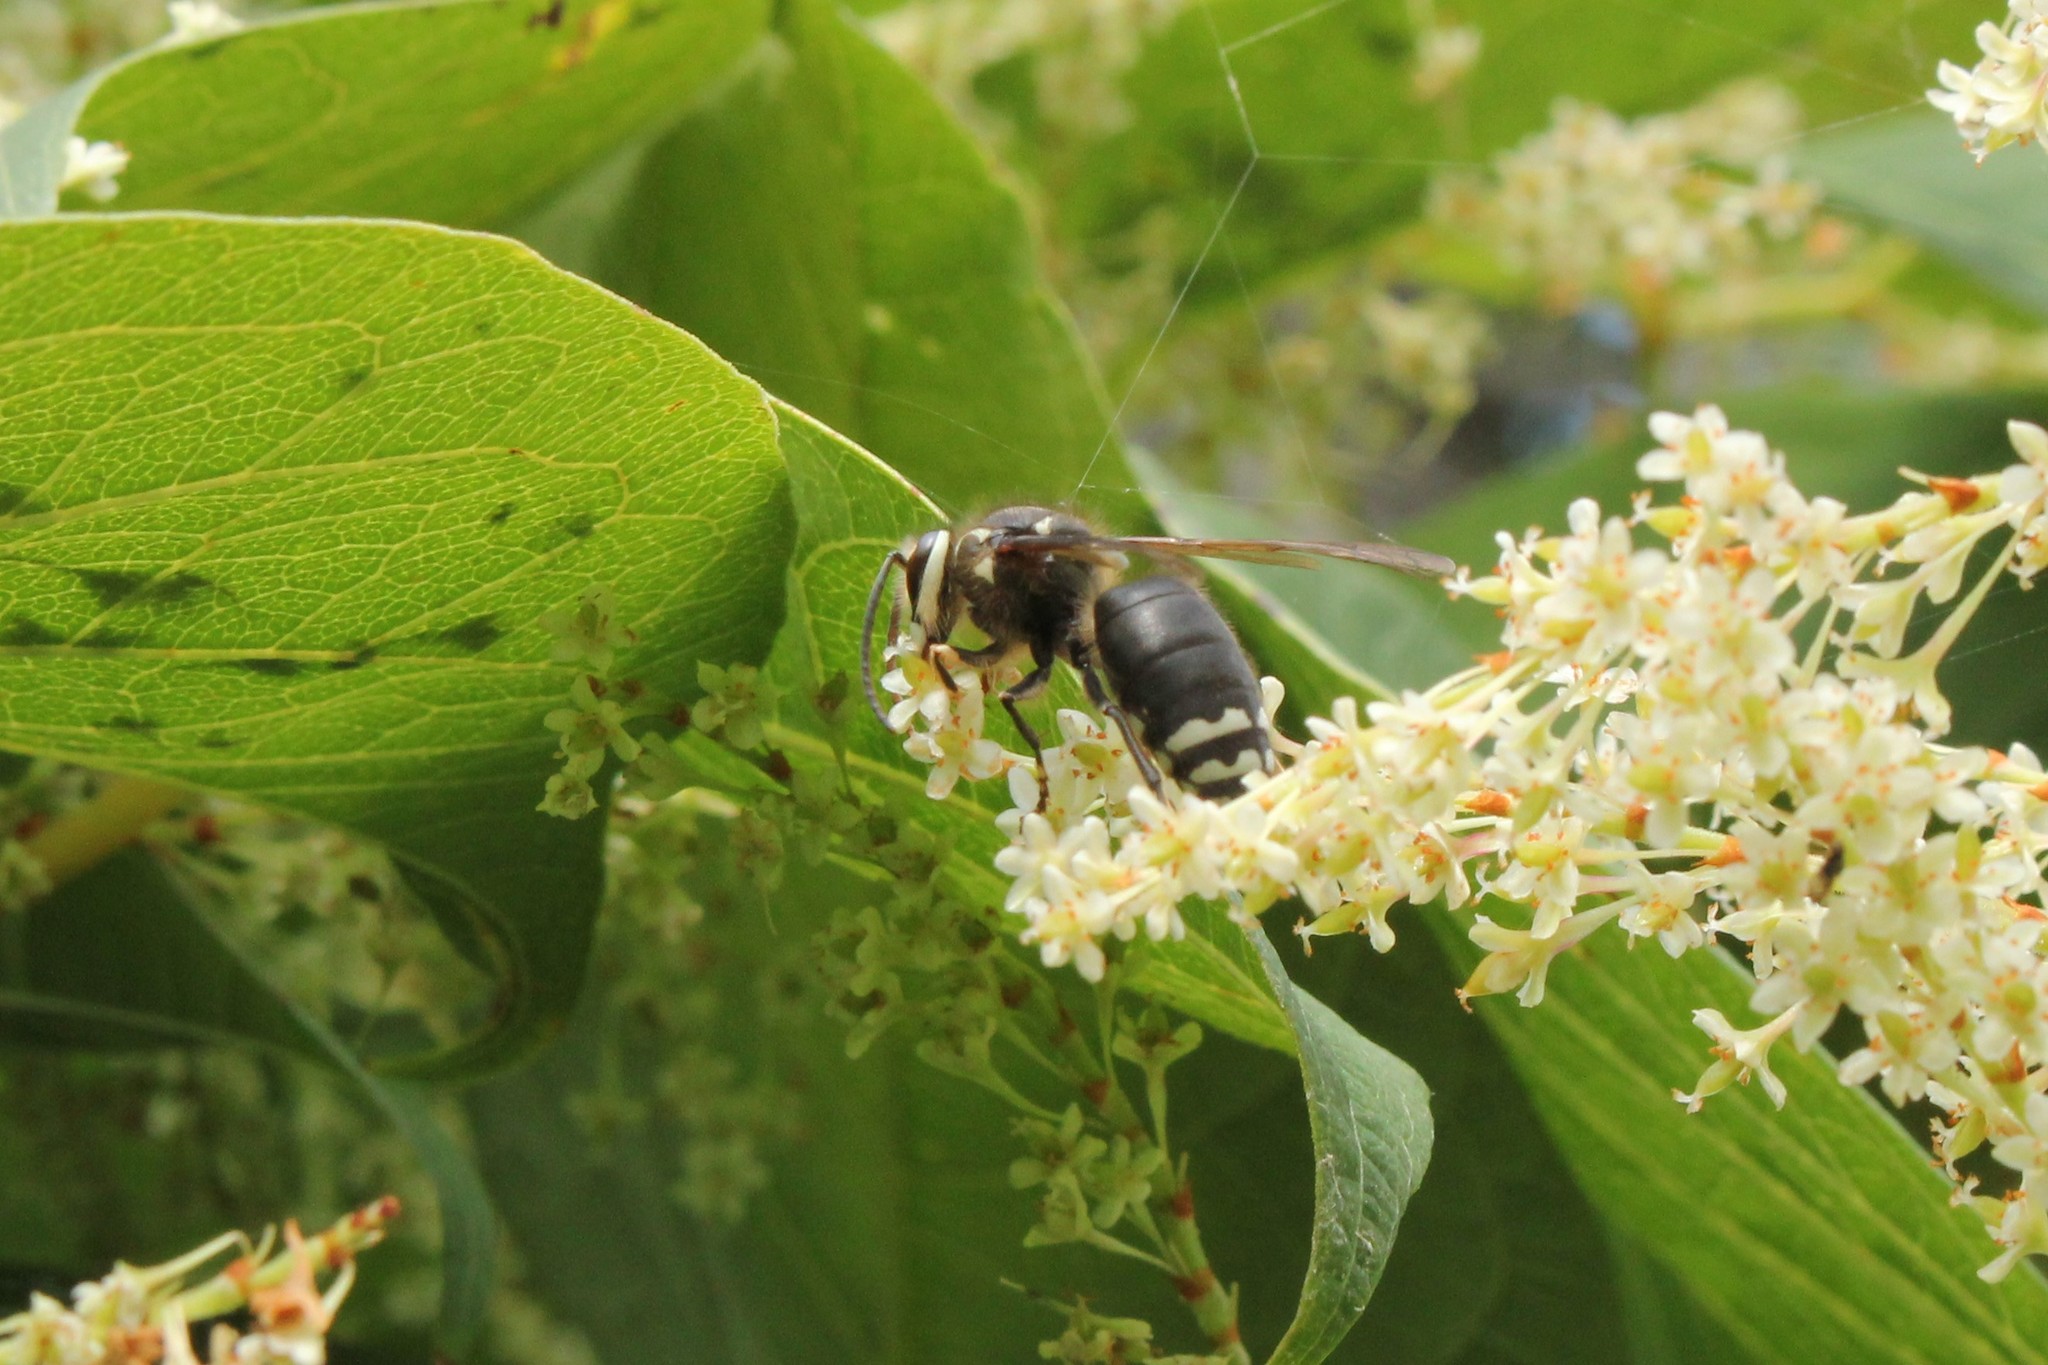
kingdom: Animalia
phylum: Arthropoda
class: Insecta
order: Hymenoptera
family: Vespidae
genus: Dolichovespula
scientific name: Dolichovespula maculata
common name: Bald-faced hornet
